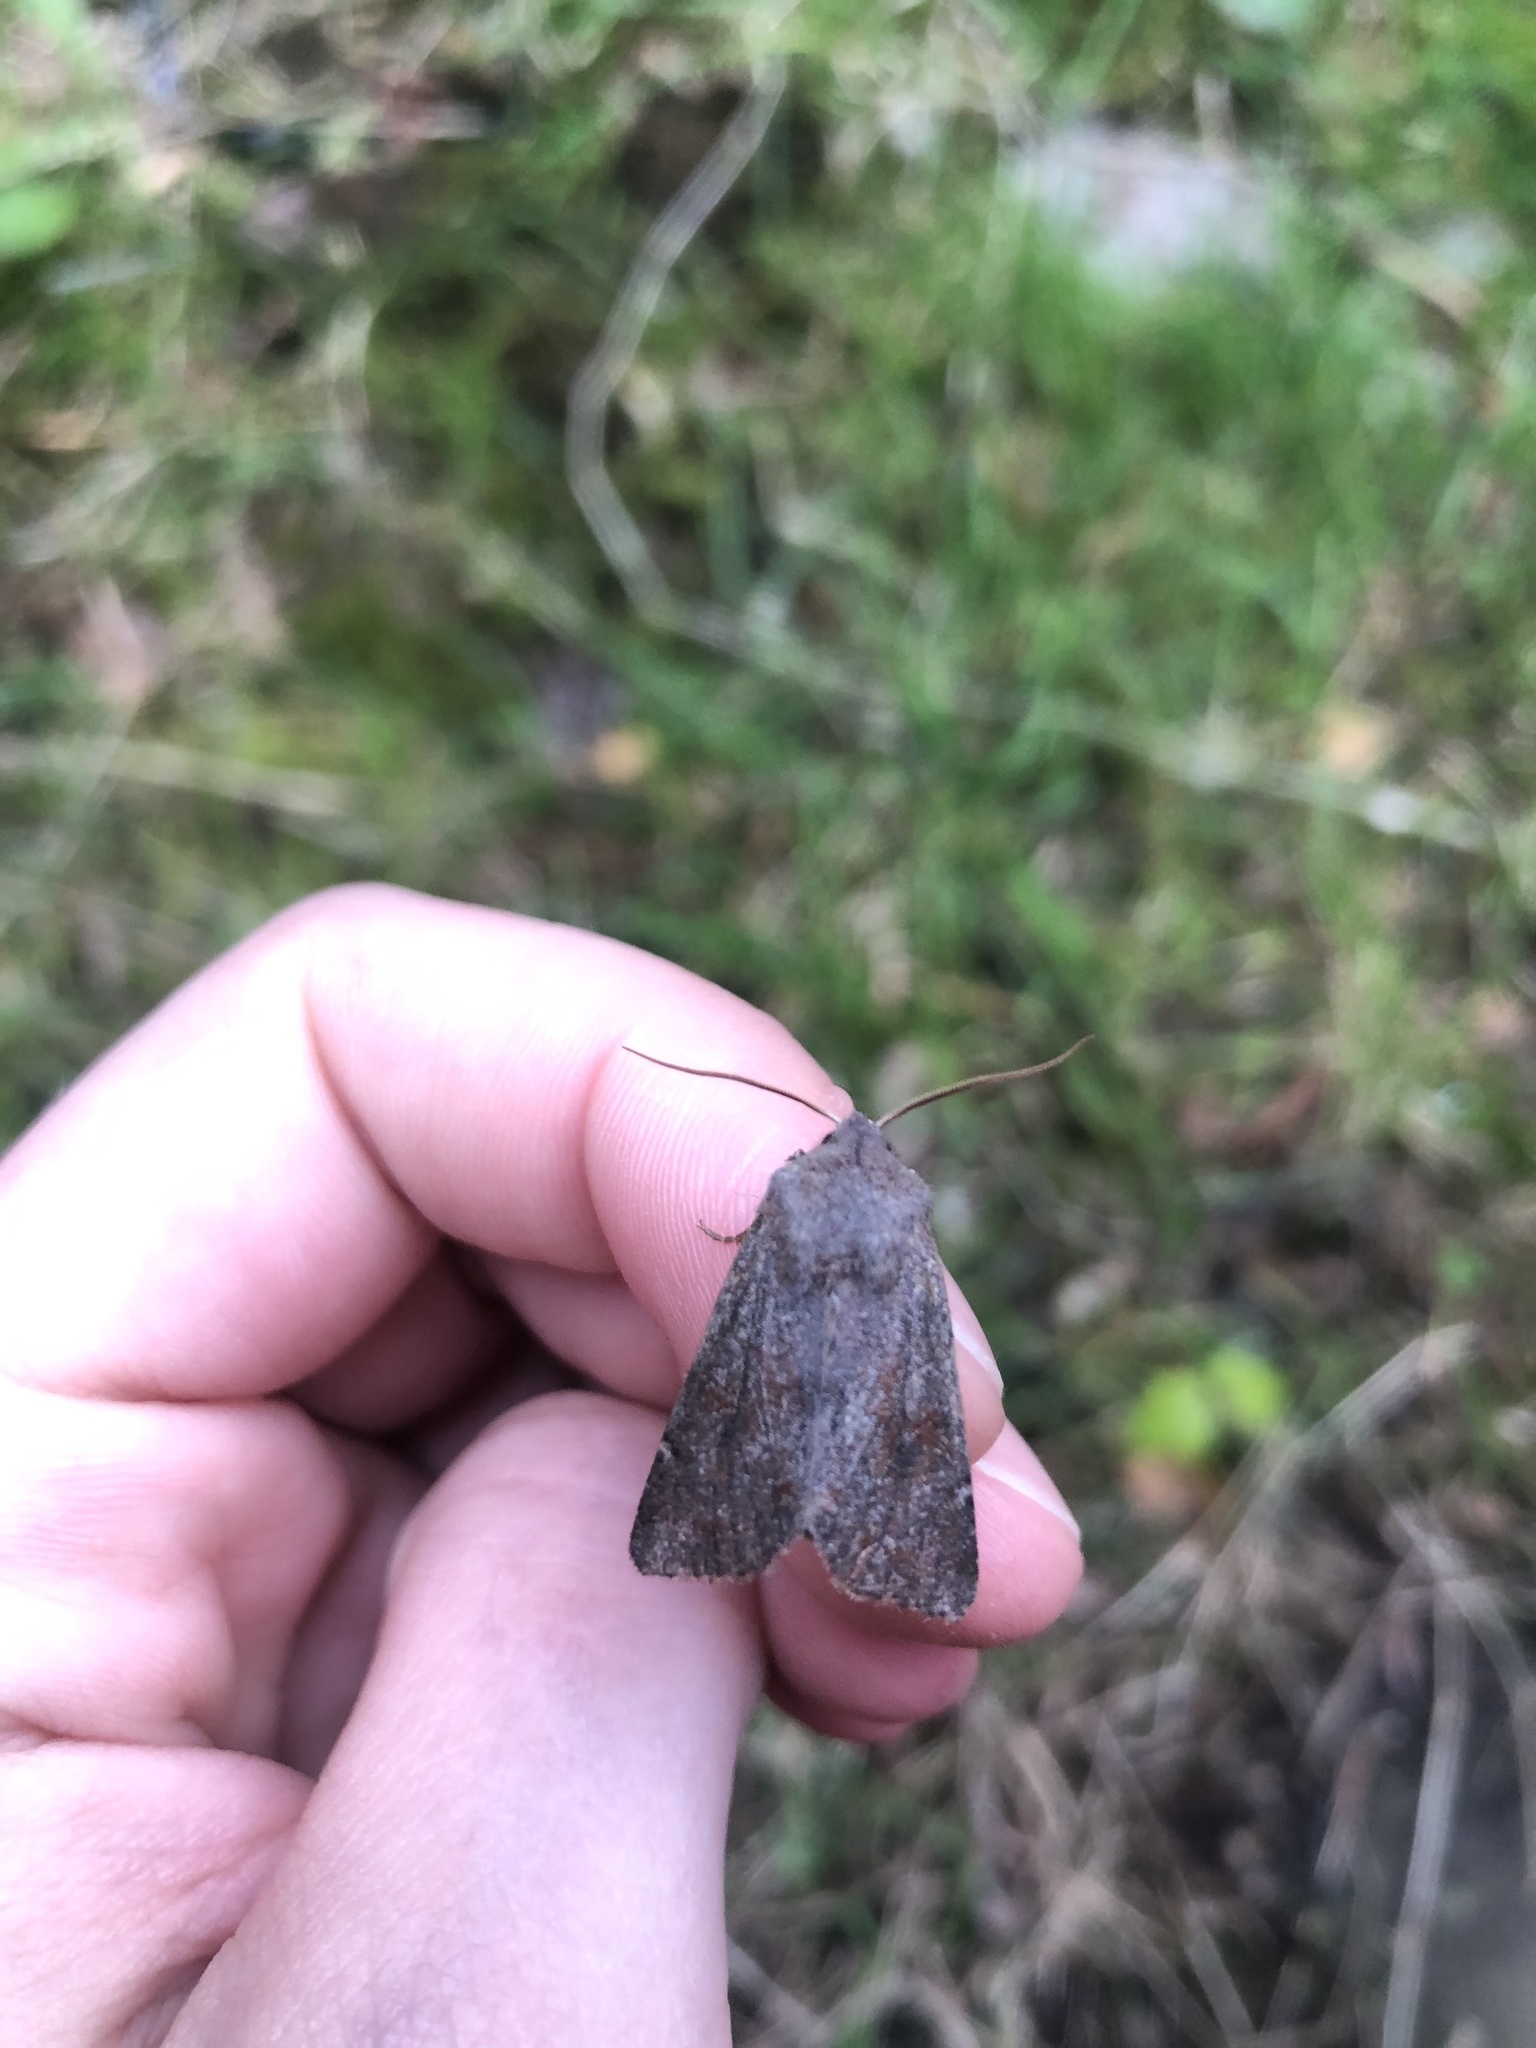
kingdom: Animalia
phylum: Arthropoda
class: Insecta
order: Lepidoptera
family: Noctuidae
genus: Orthosia
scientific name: Orthosia incerta
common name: Clouded drab
